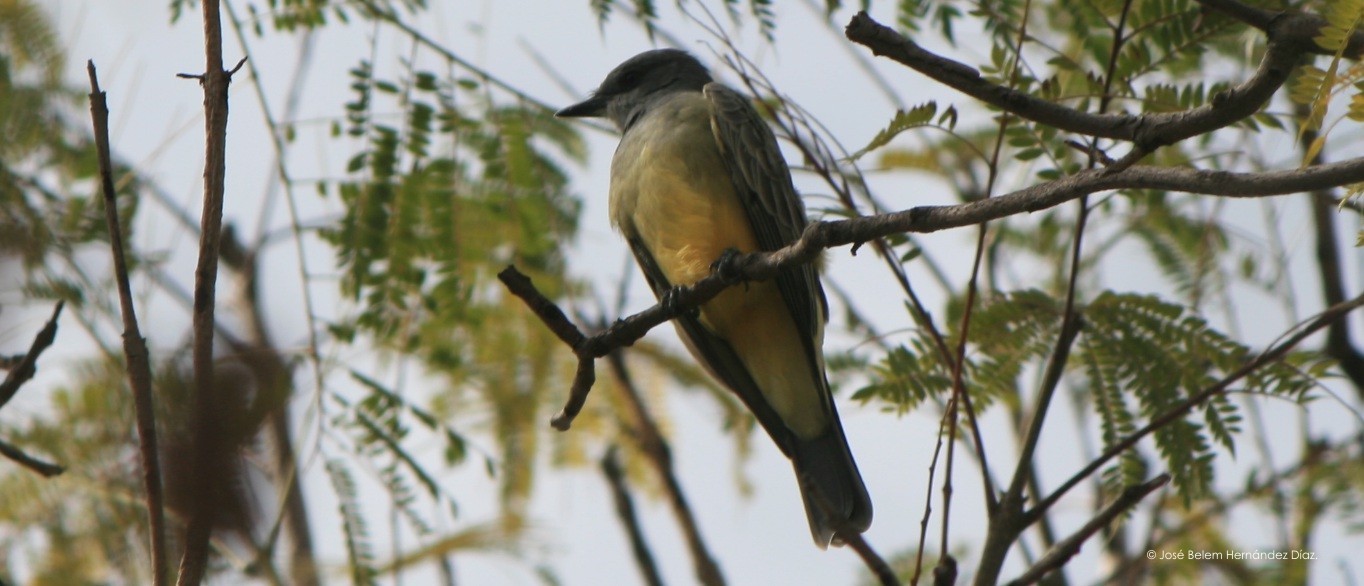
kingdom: Animalia
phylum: Chordata
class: Aves
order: Passeriformes
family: Tyrannidae
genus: Tyrannus
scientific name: Tyrannus vociferans
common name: Cassin's kingbird
